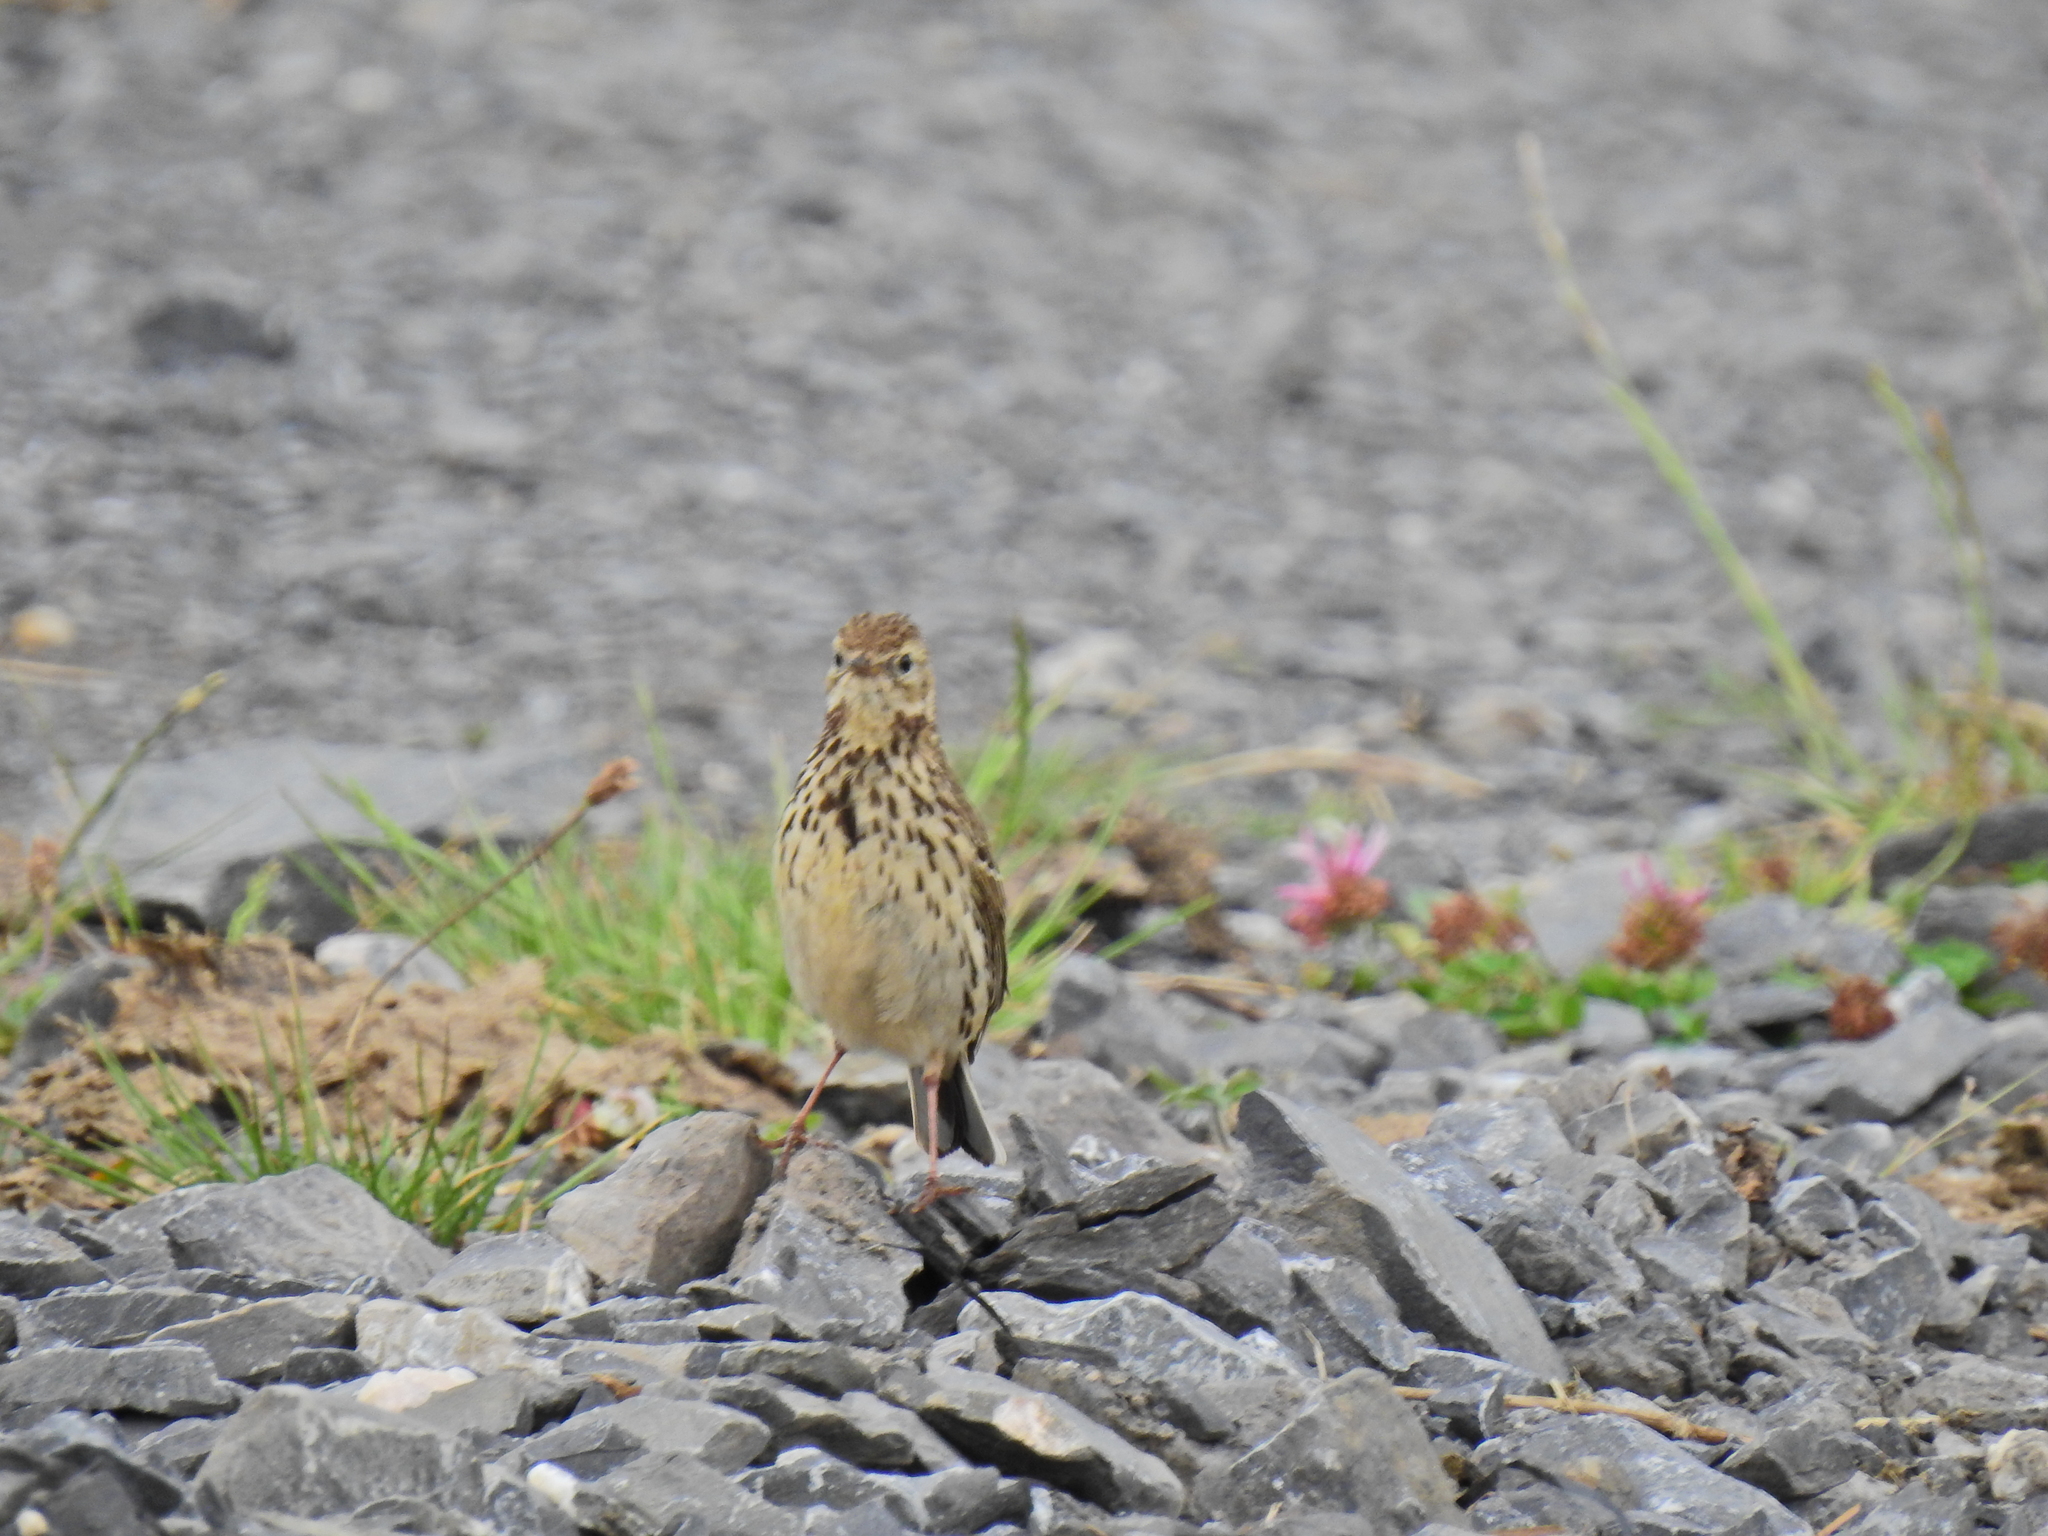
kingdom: Animalia
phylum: Chordata
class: Aves
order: Passeriformes
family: Motacillidae
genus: Anthus
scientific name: Anthus pratensis
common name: Meadow pipit
